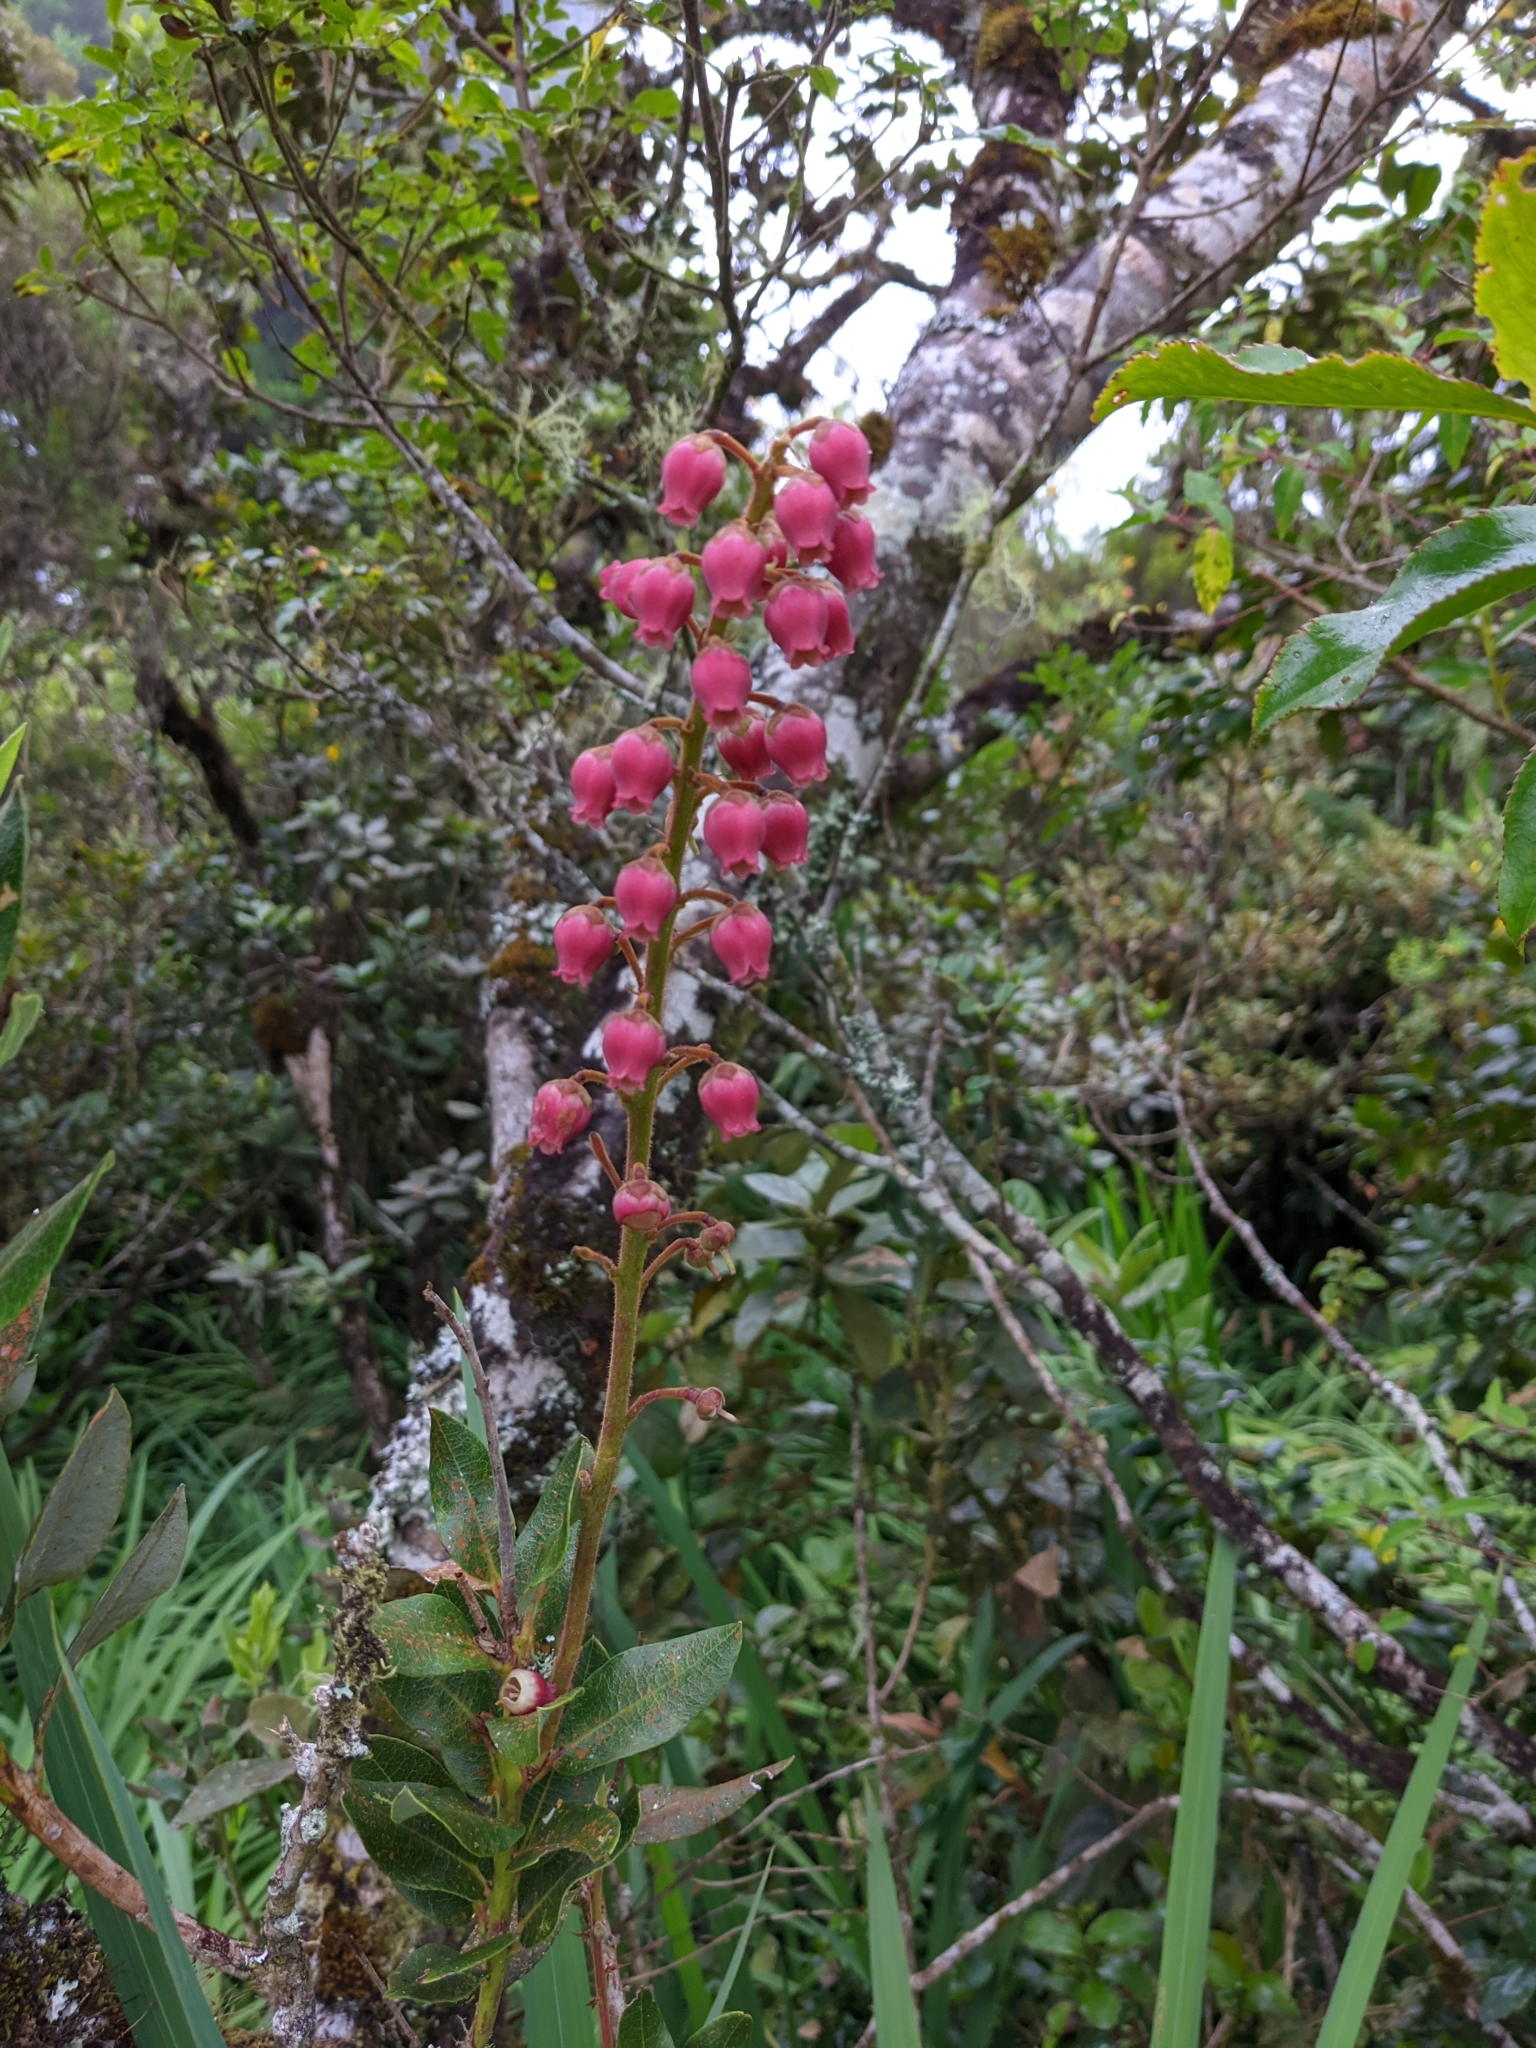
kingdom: Plantae
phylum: Tracheophyta
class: Magnoliopsida
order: Ericales
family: Ericaceae
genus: Agarista
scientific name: Agarista buxifolia
